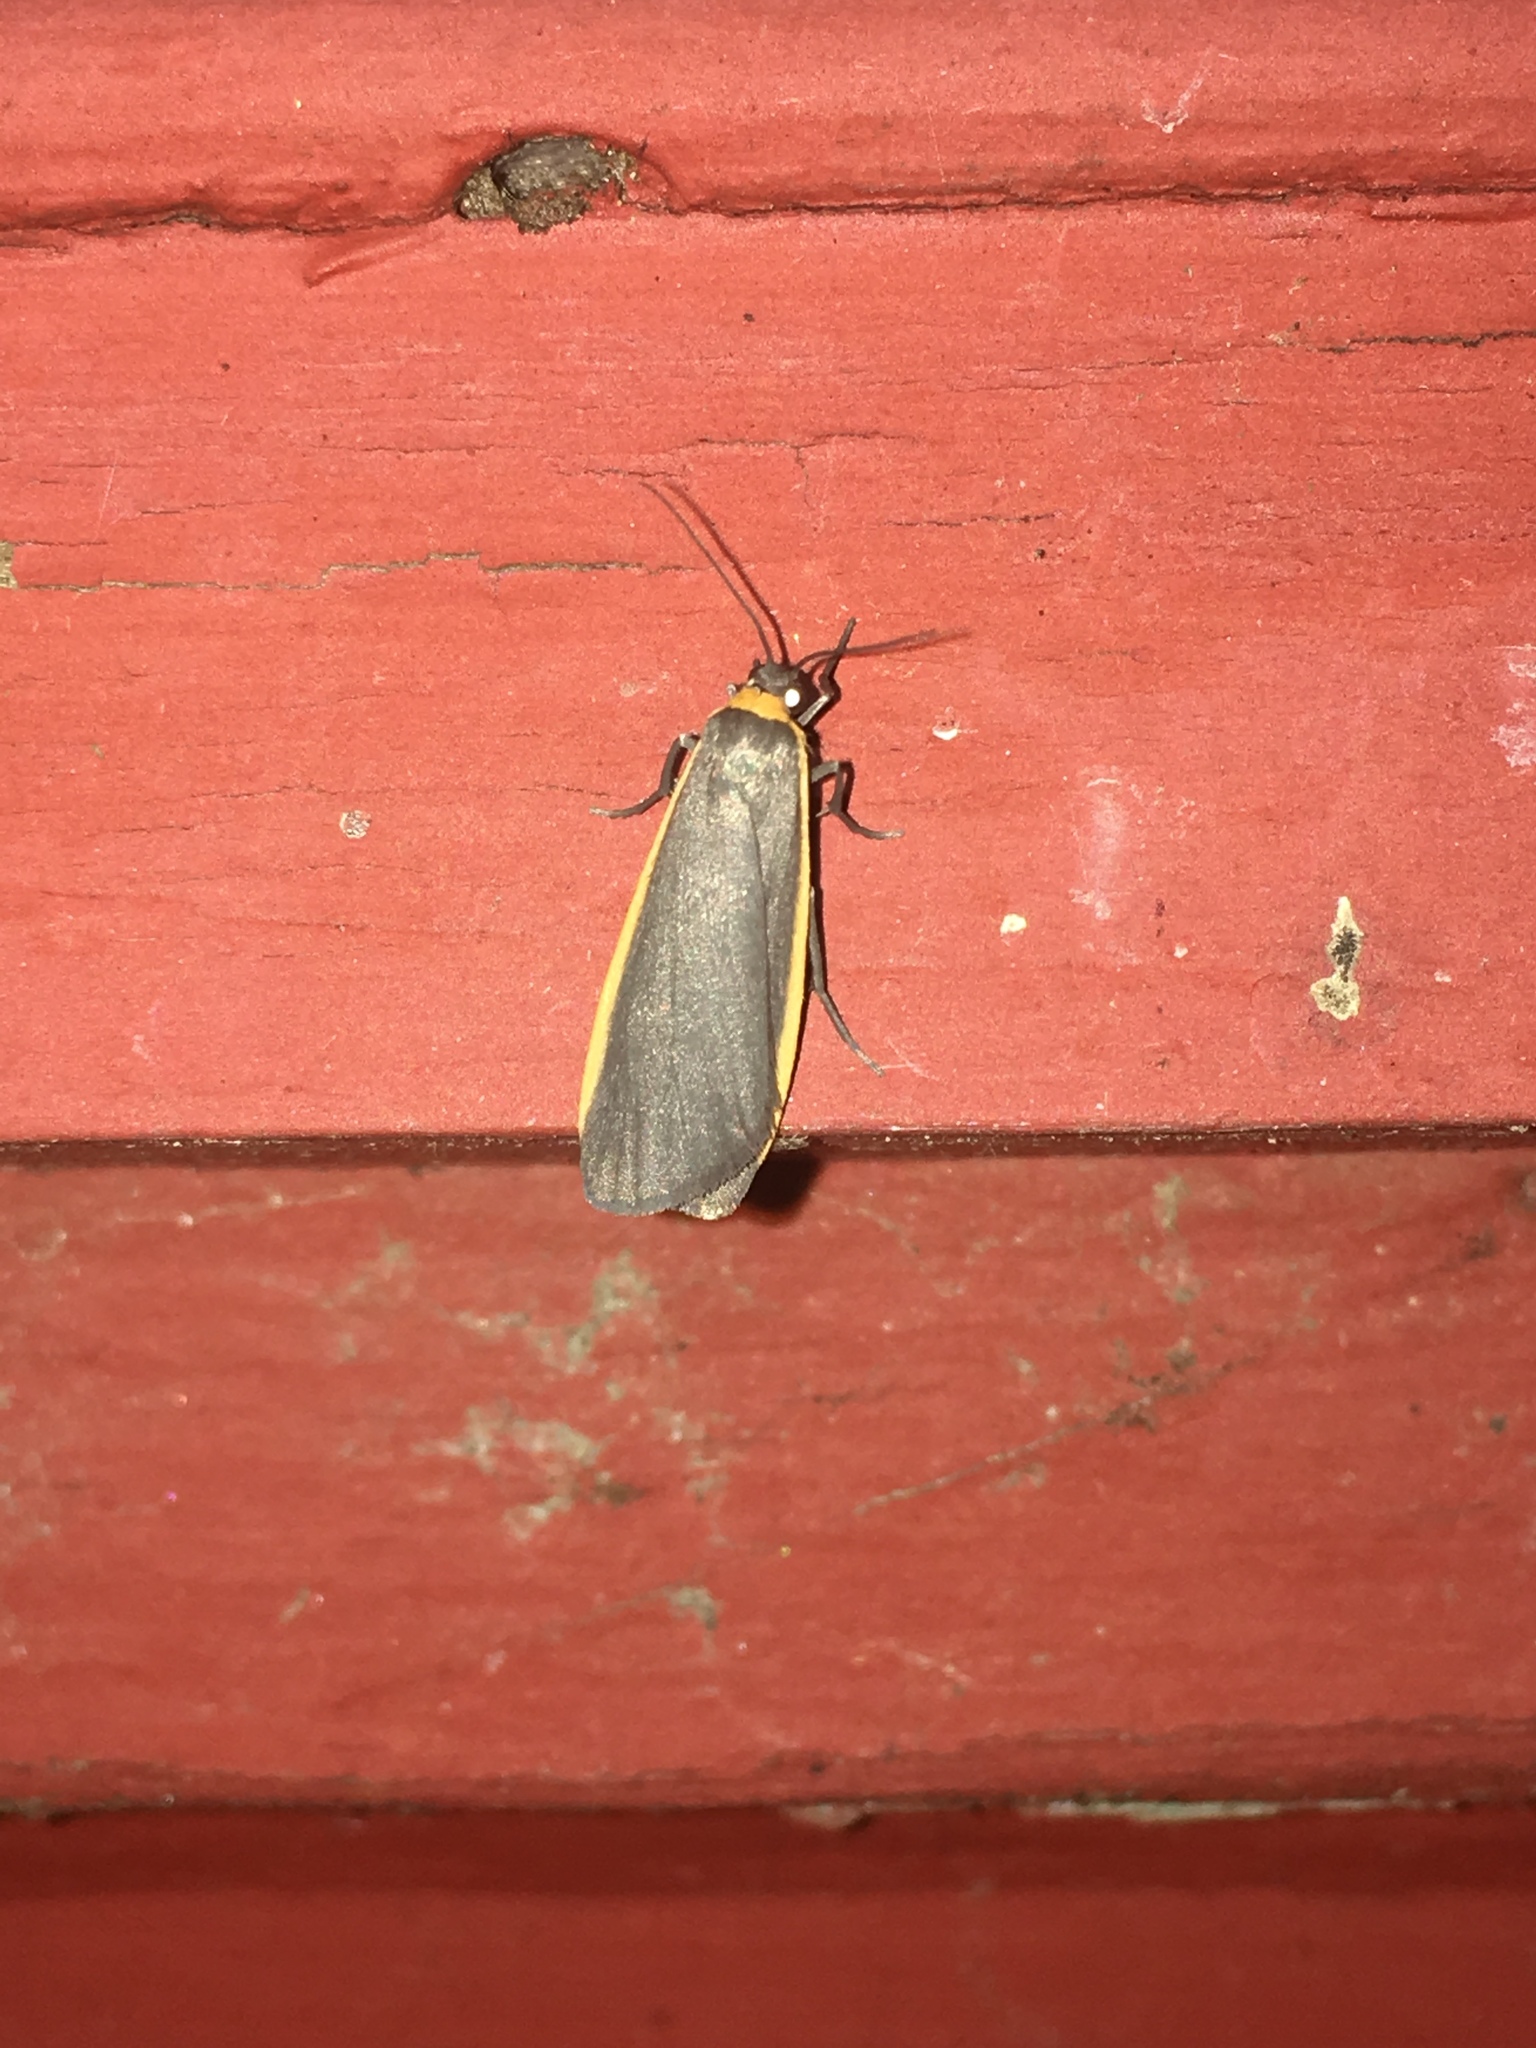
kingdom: Animalia
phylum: Arthropoda
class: Insecta
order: Lepidoptera
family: Erebidae
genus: Manulea
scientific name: Manulea bicolor
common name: Bicolored moth
